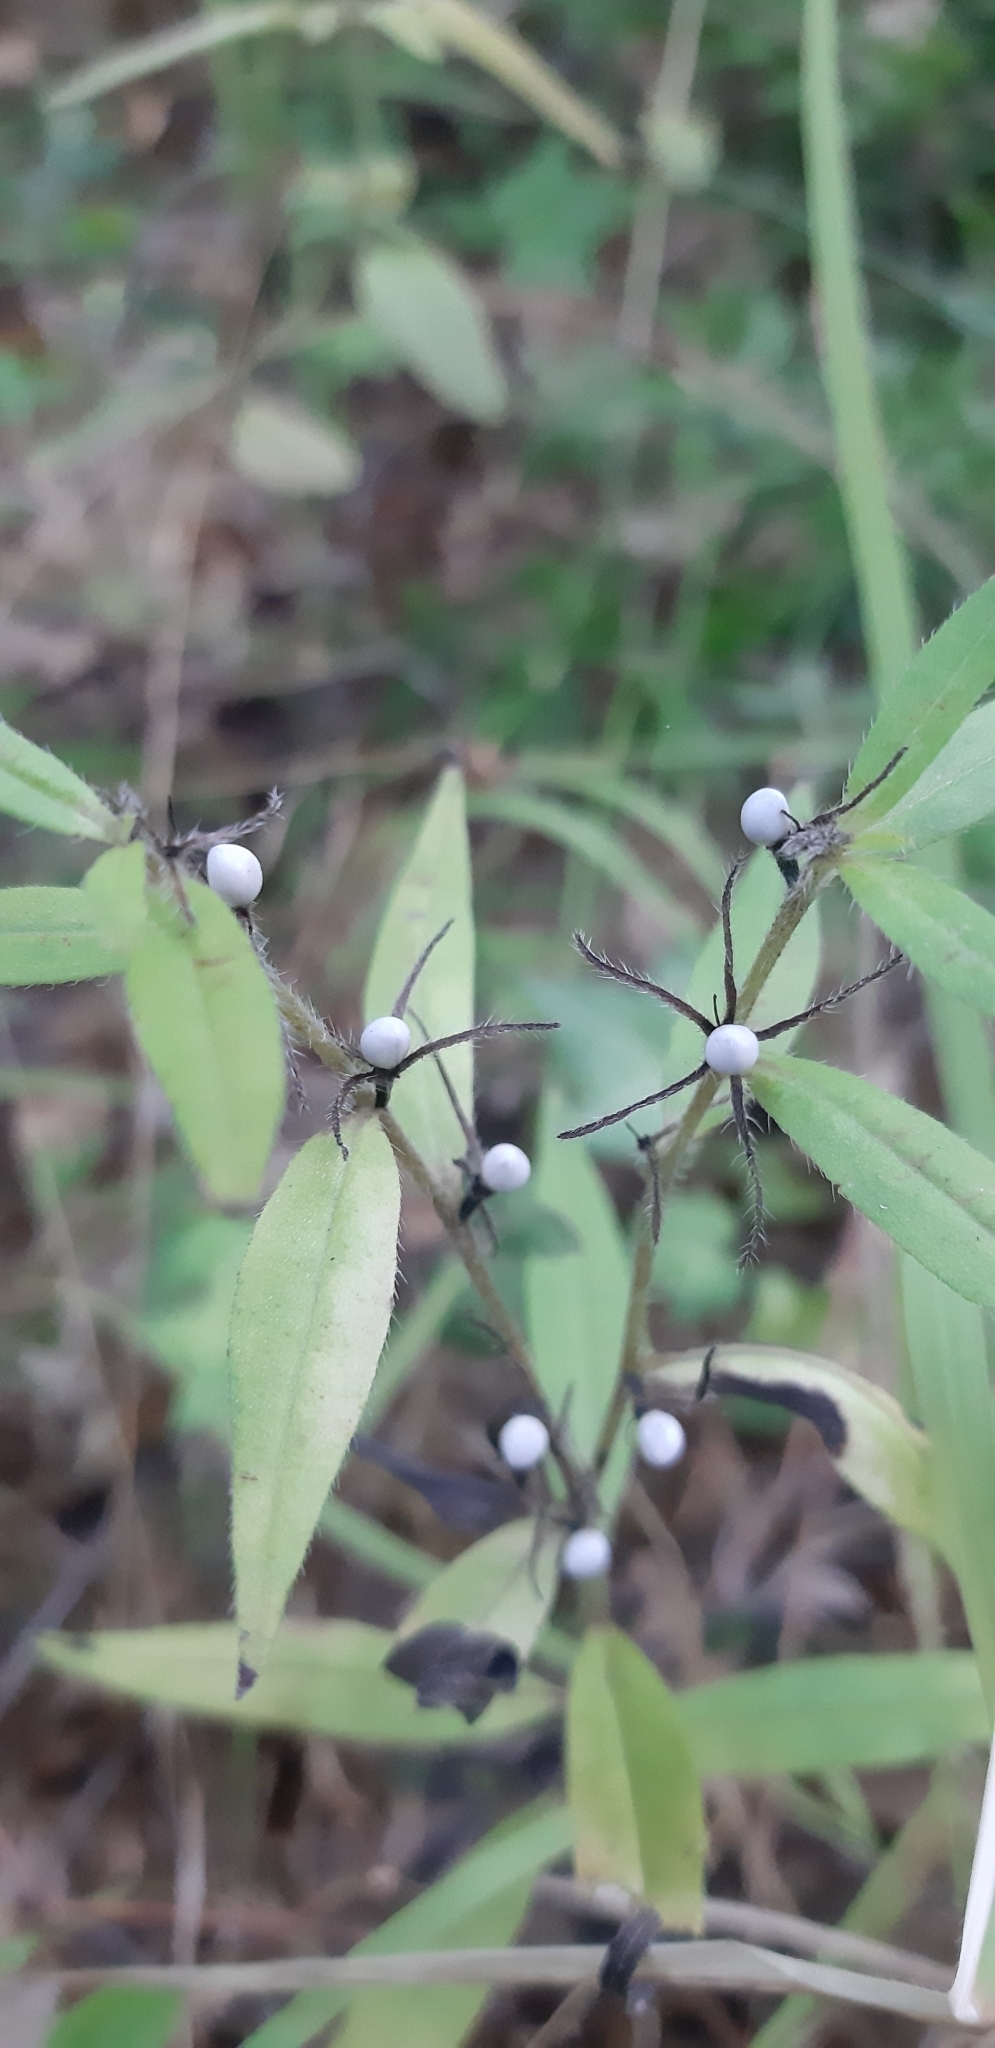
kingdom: Plantae
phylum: Tracheophyta
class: Magnoliopsida
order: Boraginales
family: Boraginaceae
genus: Aegonychon
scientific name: Aegonychon purpurocaeruleum
